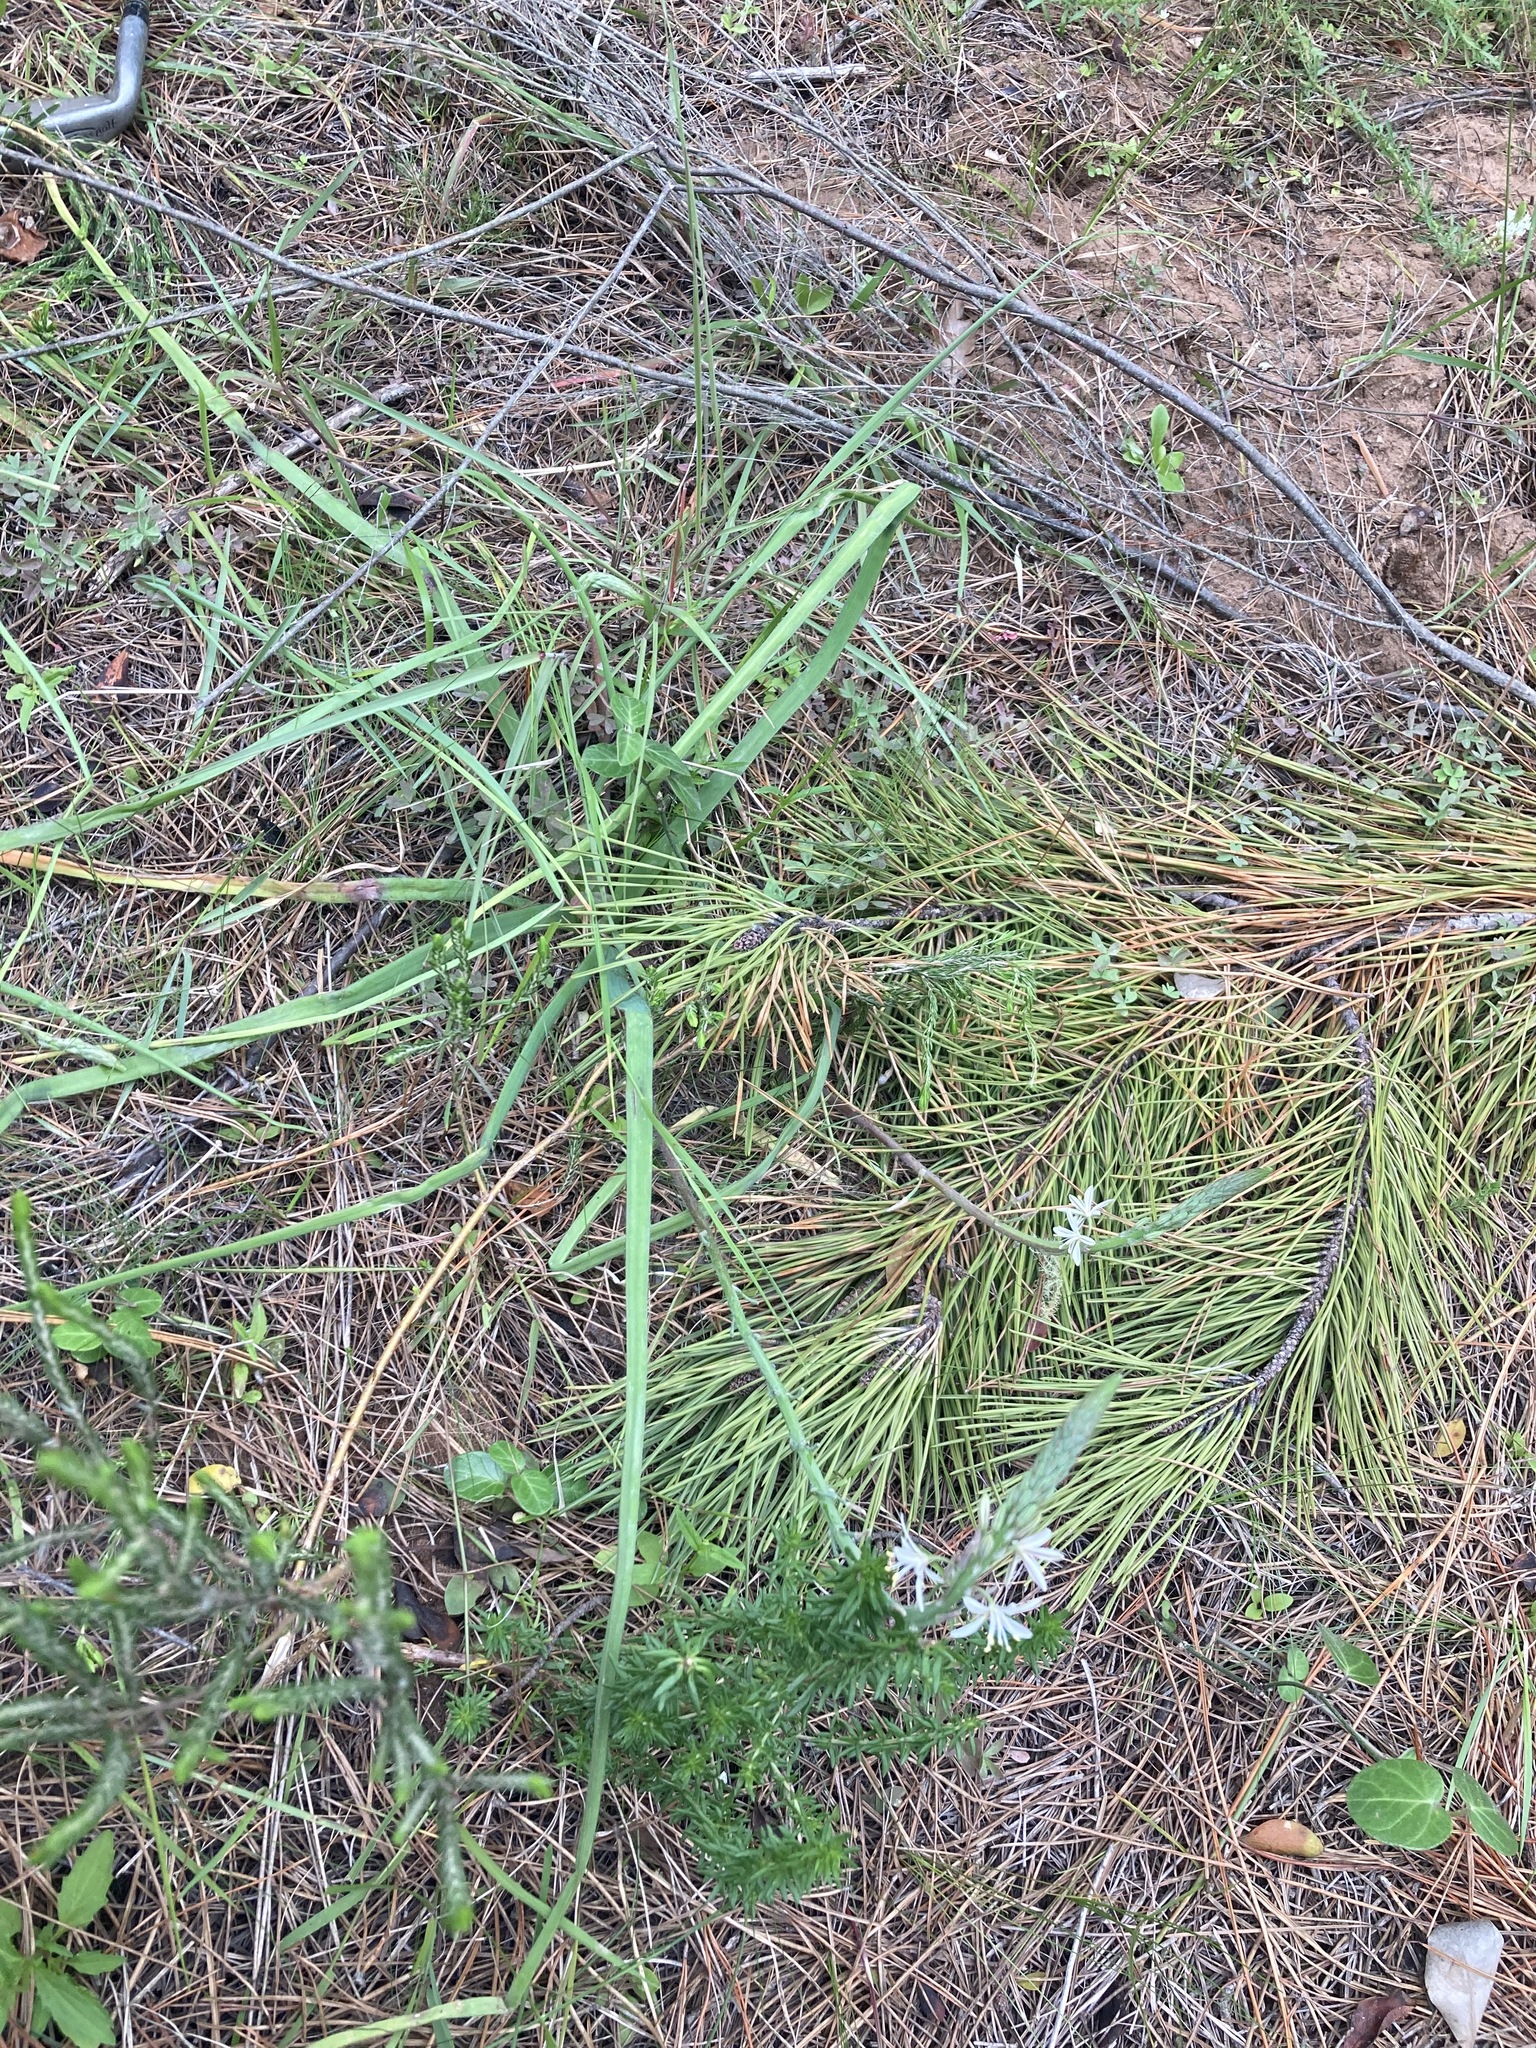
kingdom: Plantae
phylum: Tracheophyta
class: Liliopsida
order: Asparagales
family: Asphodelaceae
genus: Trachyandra
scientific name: Trachyandra ciliata
